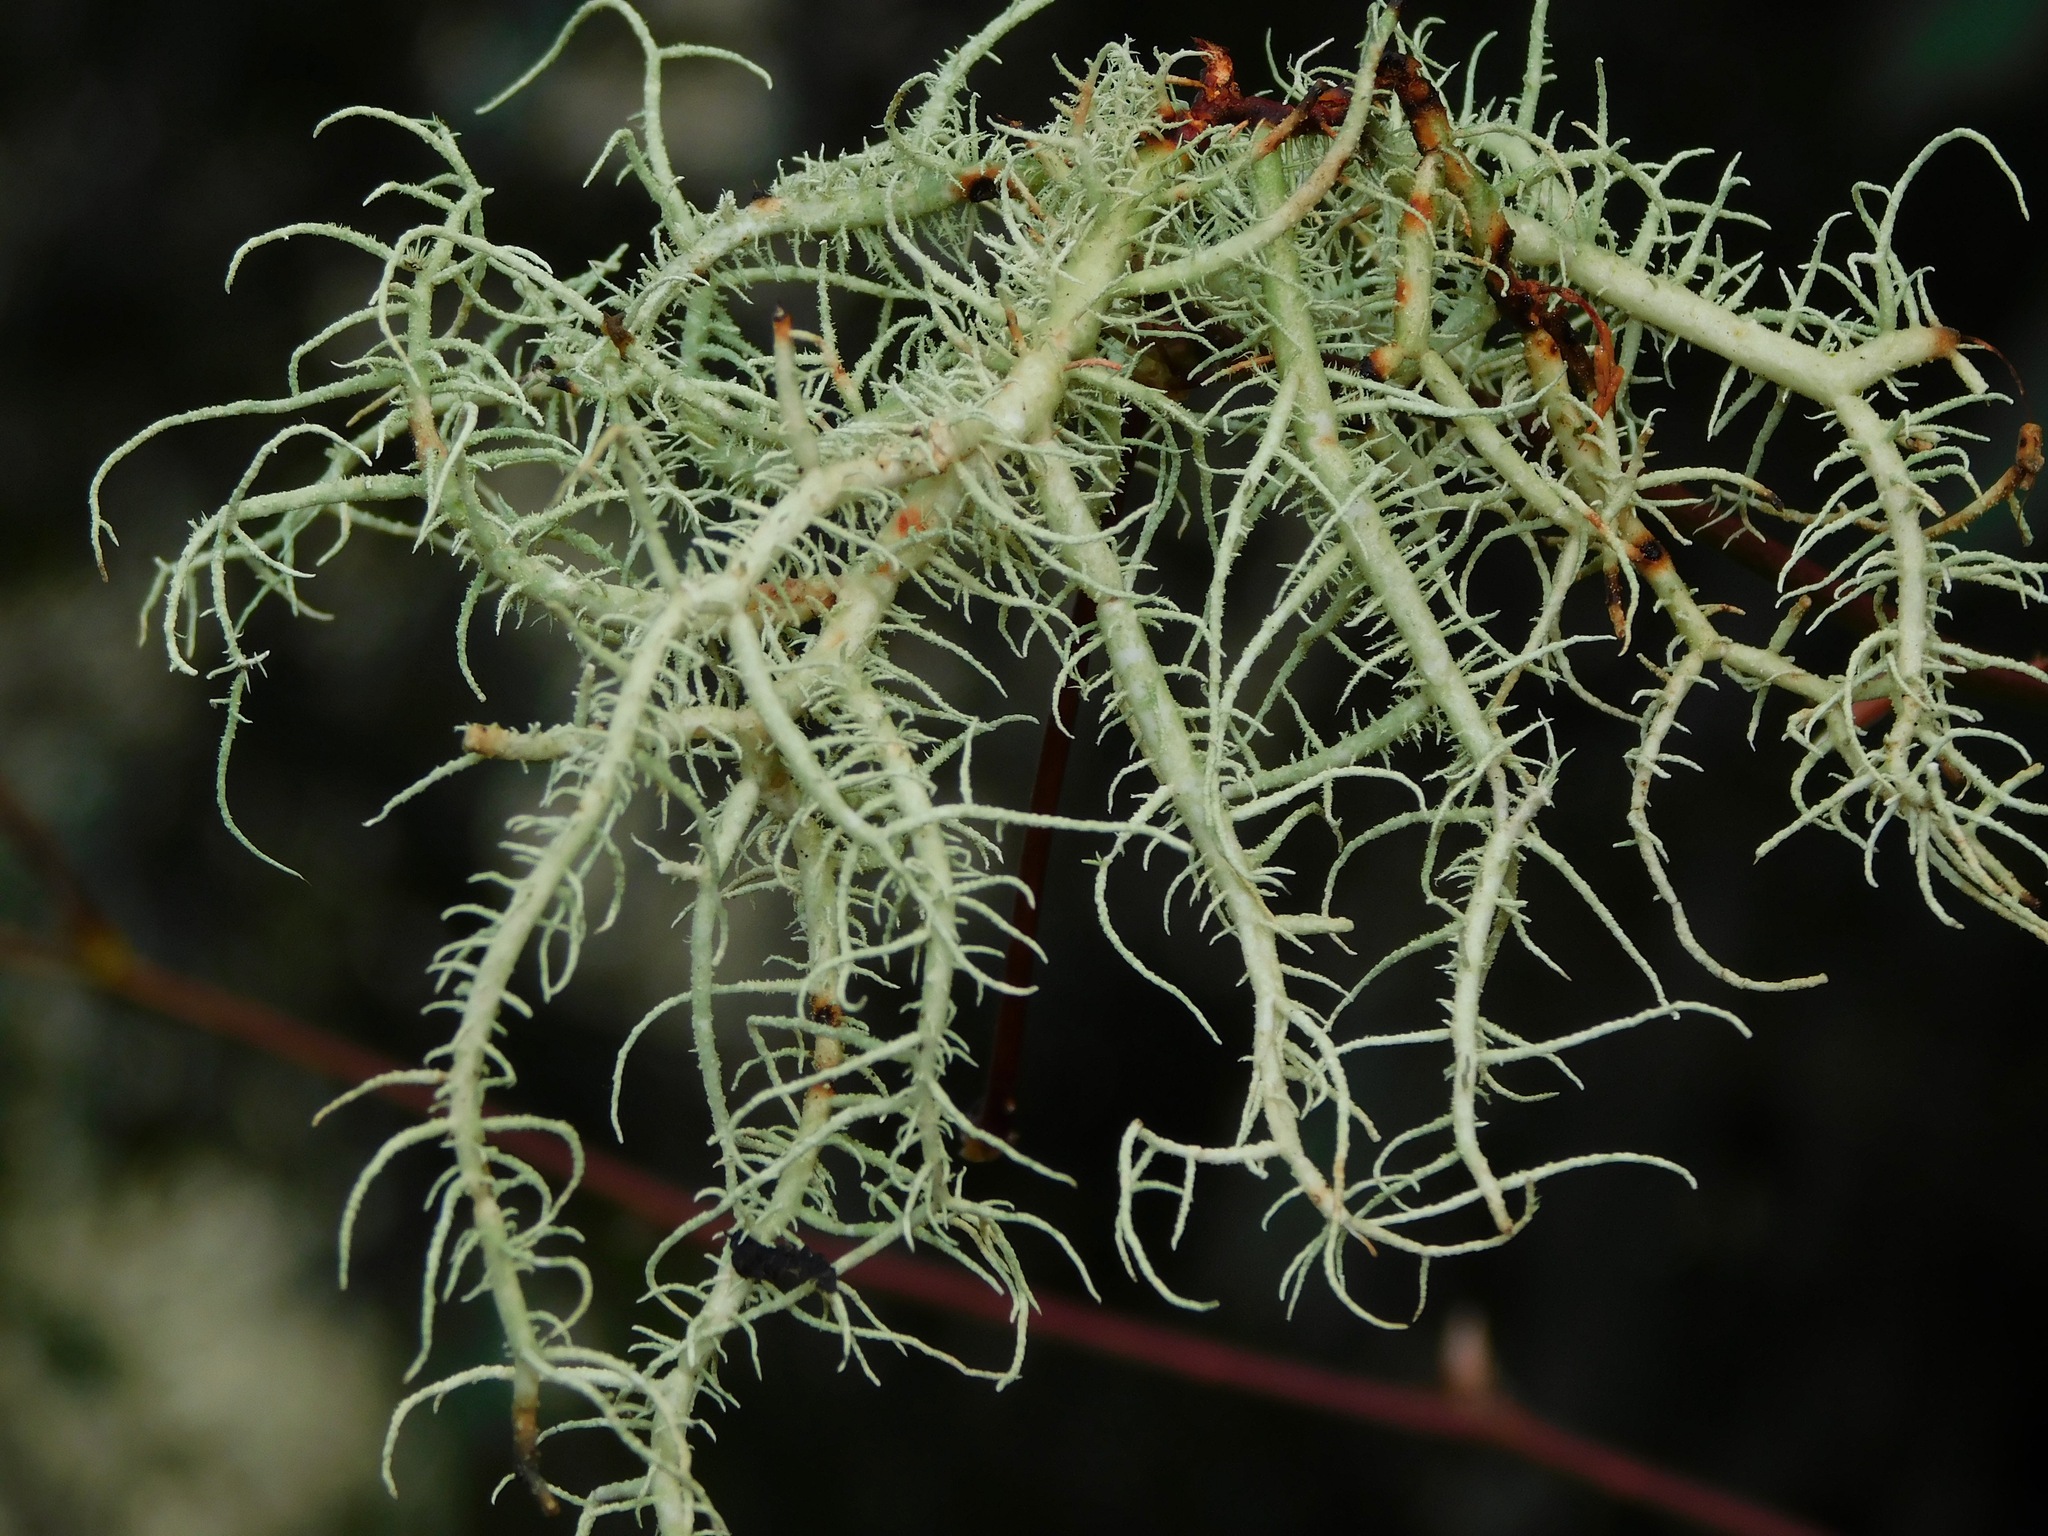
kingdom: Fungi
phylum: Ascomycota
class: Lecanoromycetes
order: Lecanorales
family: Parmeliaceae
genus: Usnea
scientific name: Usnea cornuta
